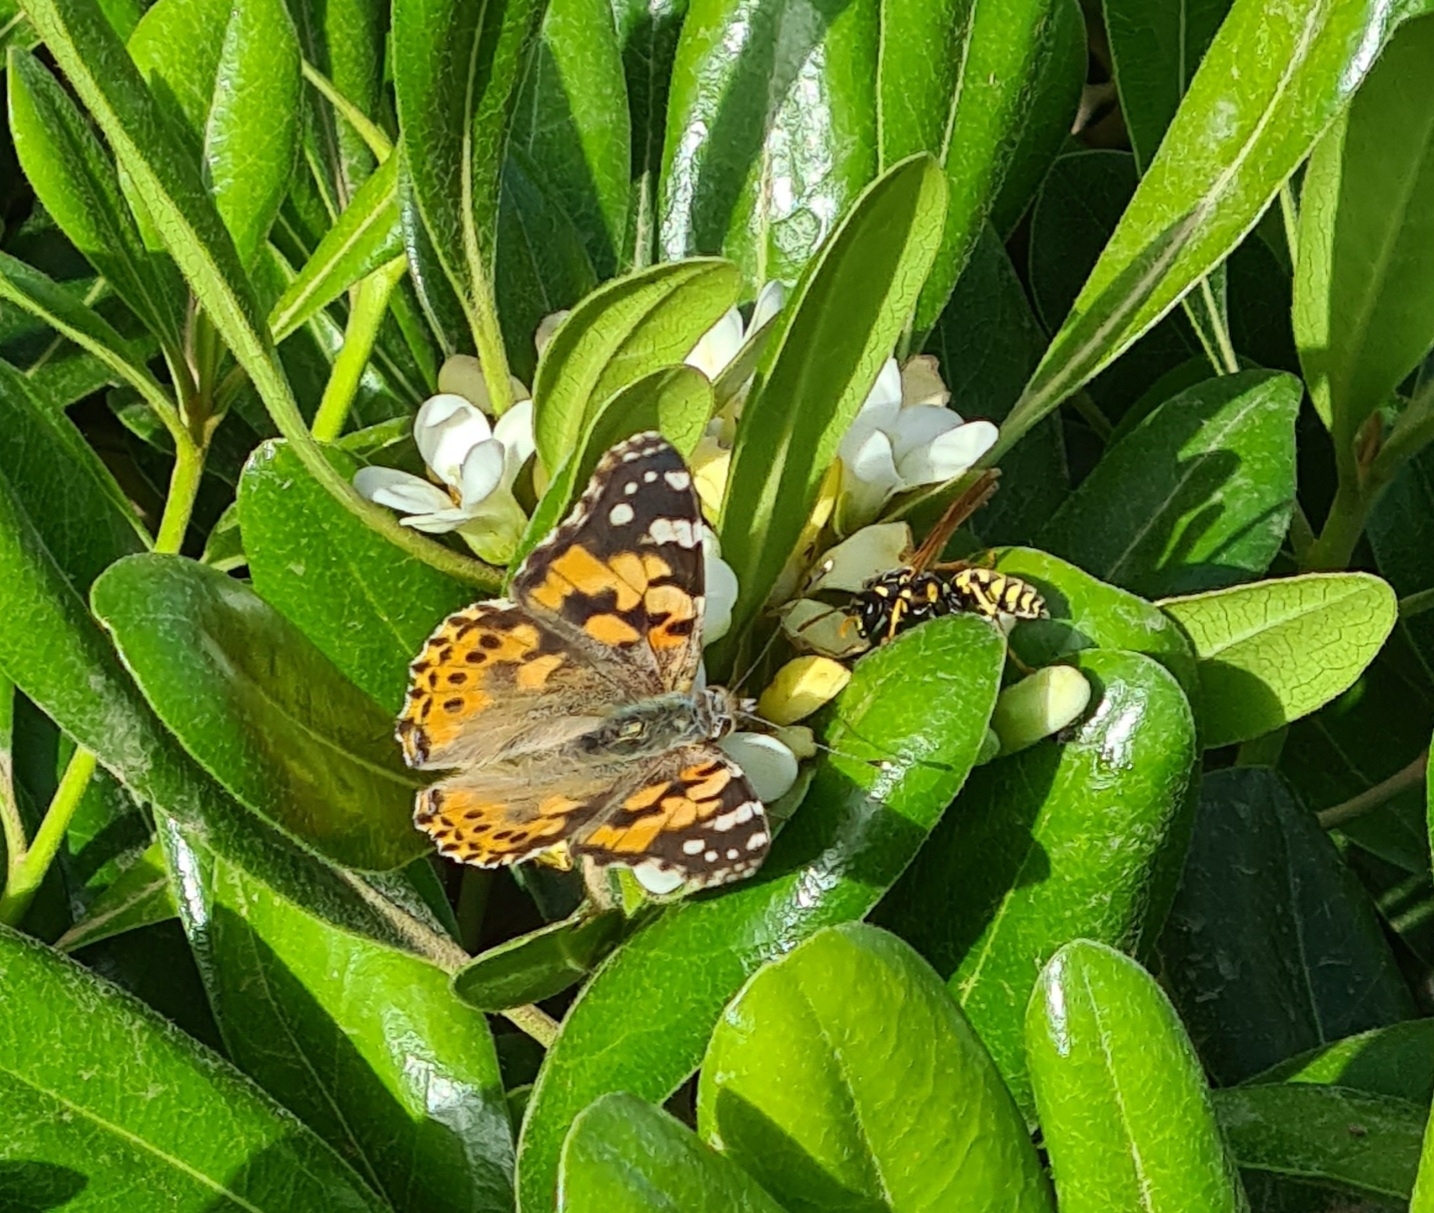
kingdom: Animalia
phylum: Arthropoda
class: Insecta
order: Lepidoptera
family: Nymphalidae
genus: Vanessa
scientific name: Vanessa cardui
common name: Painted lady
